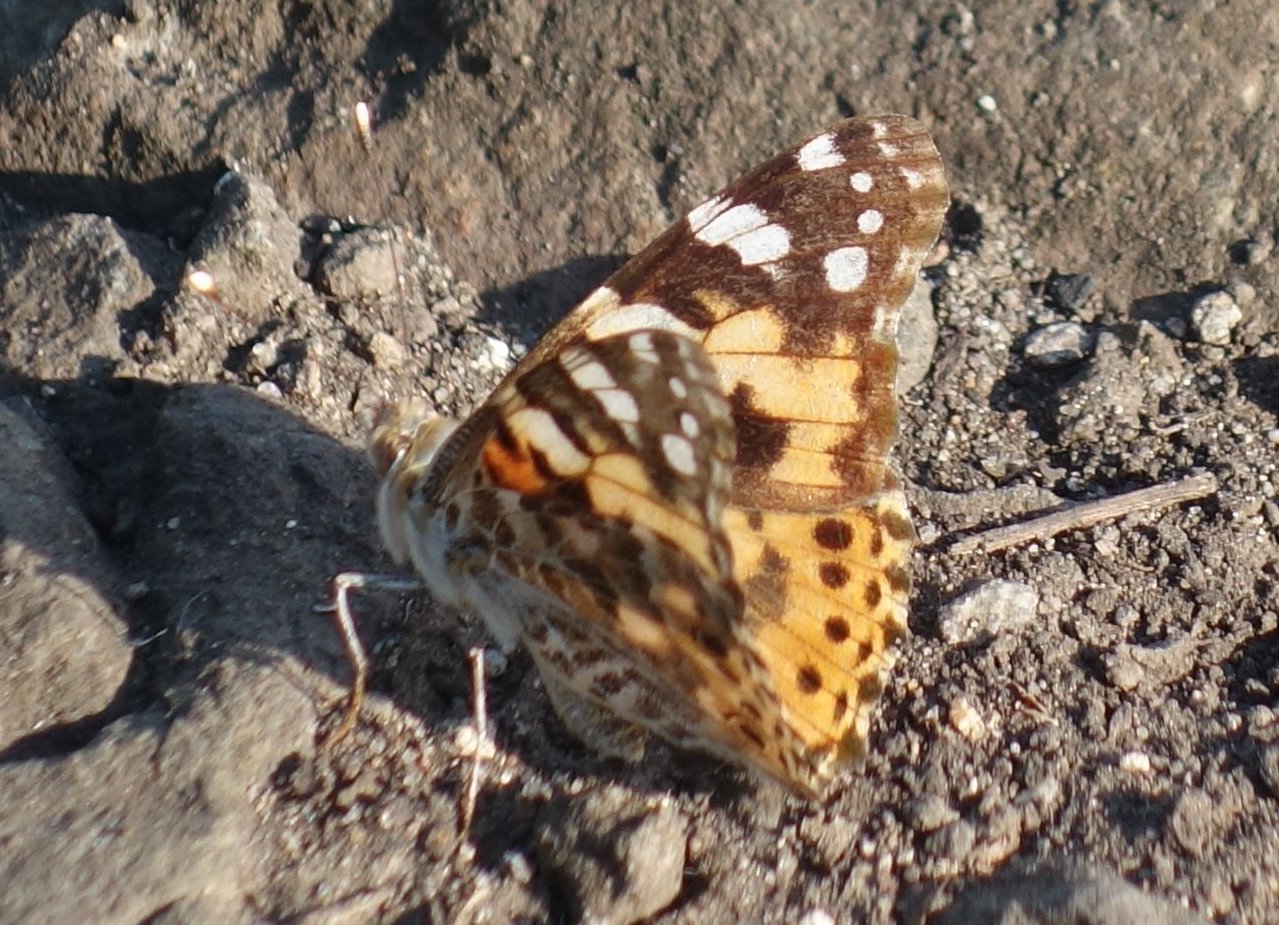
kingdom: Animalia
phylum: Arthropoda
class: Insecta
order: Lepidoptera
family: Nymphalidae
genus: Vanessa
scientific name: Vanessa cardui
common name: Painted lady
